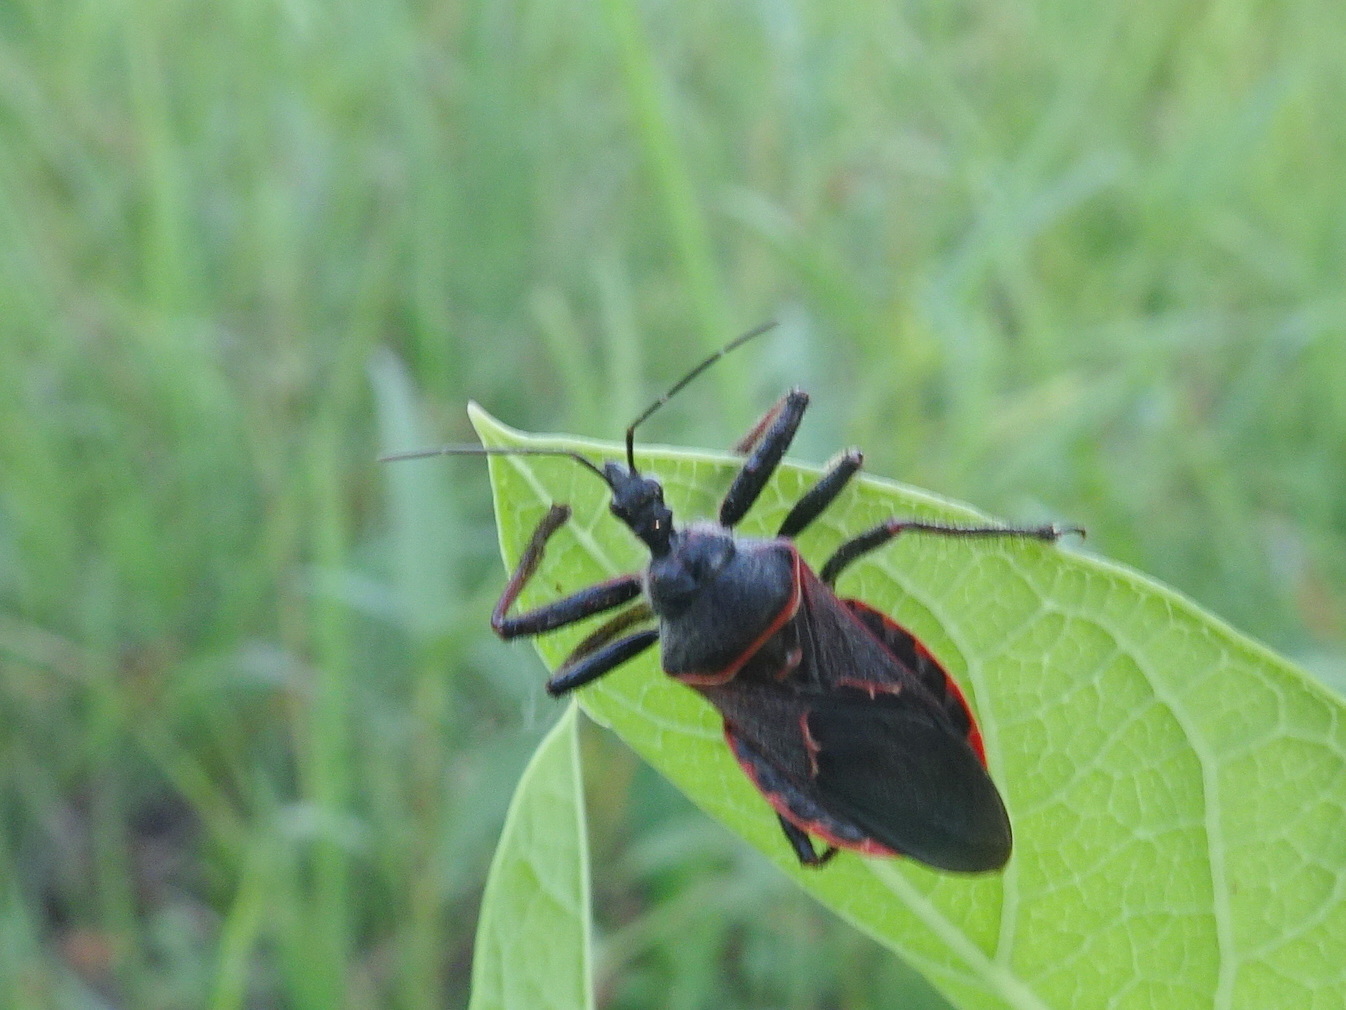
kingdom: Animalia
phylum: Arthropoda
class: Insecta
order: Hemiptera
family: Reduviidae
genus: Apiomerus
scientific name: Apiomerus crassipes
